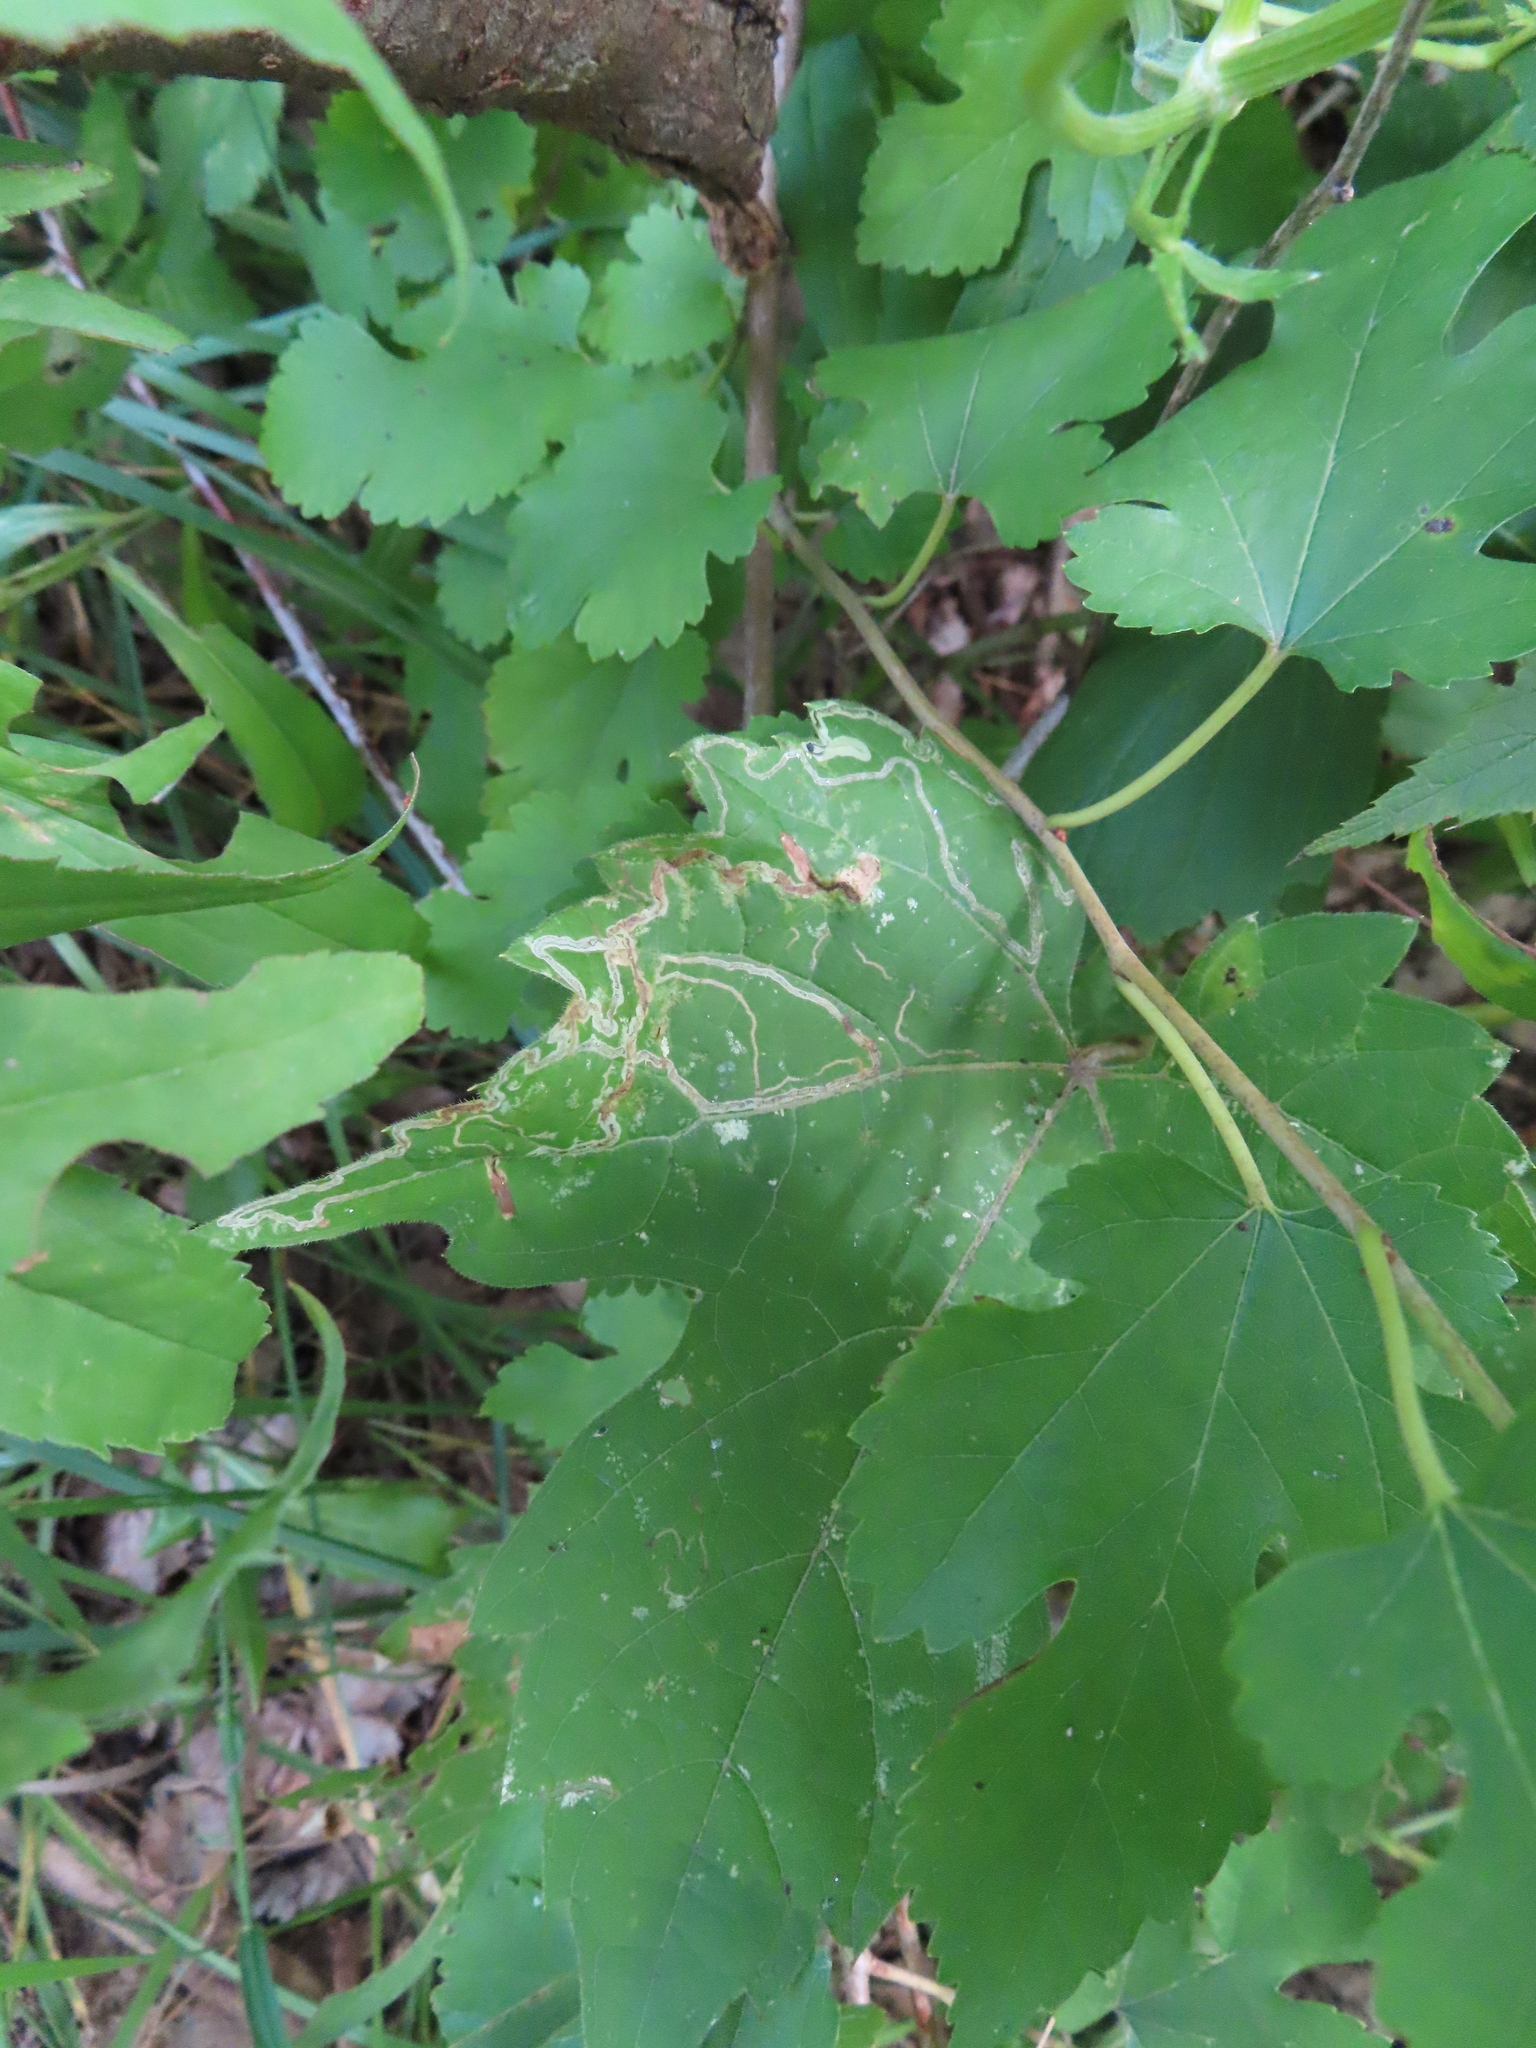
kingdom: Animalia
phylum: Arthropoda
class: Insecta
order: Lepidoptera
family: Gracillariidae
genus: Phyllocnistis
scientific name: Phyllocnistis vitifoliella
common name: Grape leaf-miner moth
